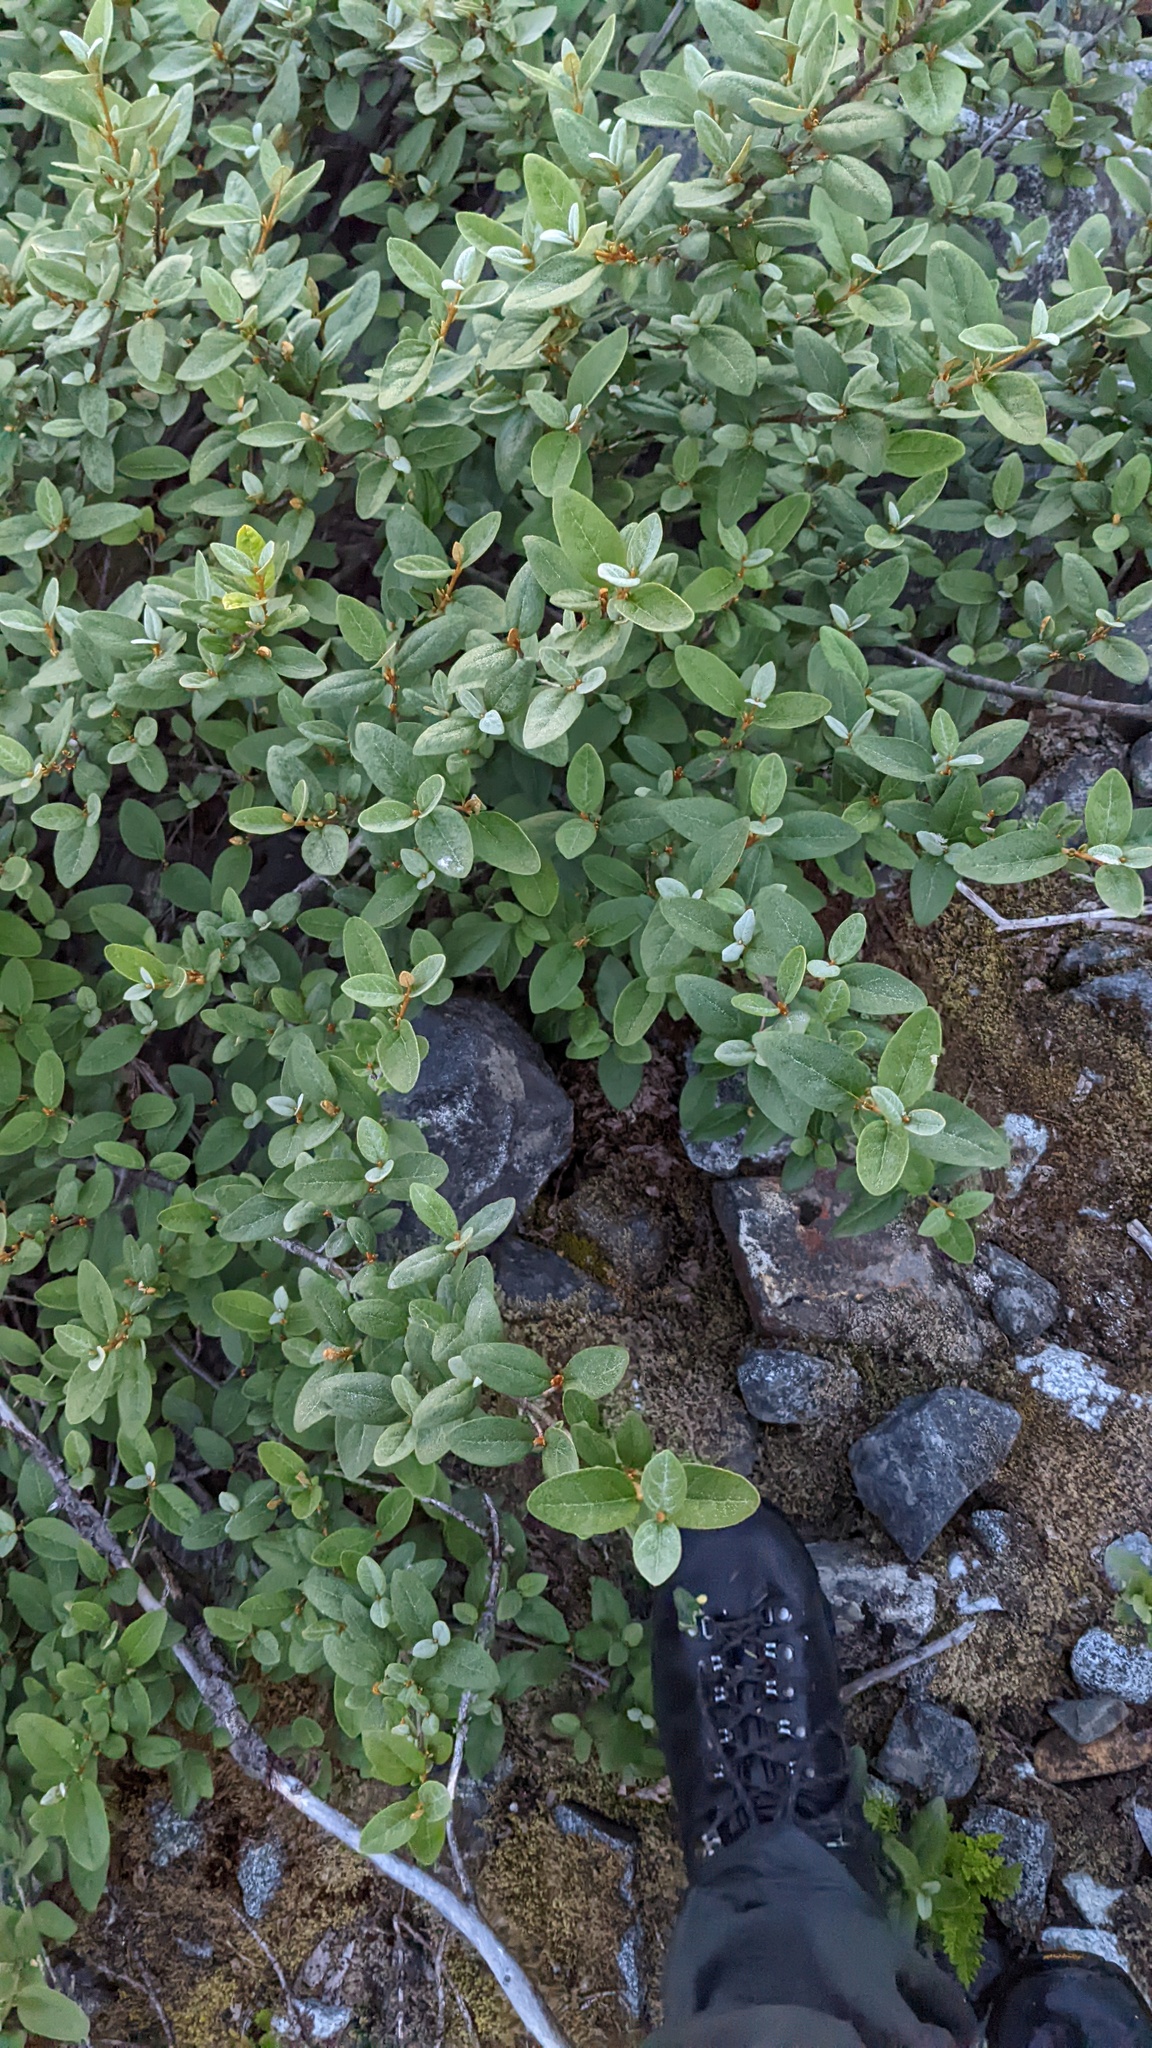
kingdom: Plantae
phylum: Tracheophyta
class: Magnoliopsida
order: Rosales
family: Elaeagnaceae
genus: Shepherdia
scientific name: Shepherdia canadensis
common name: Soapberry
